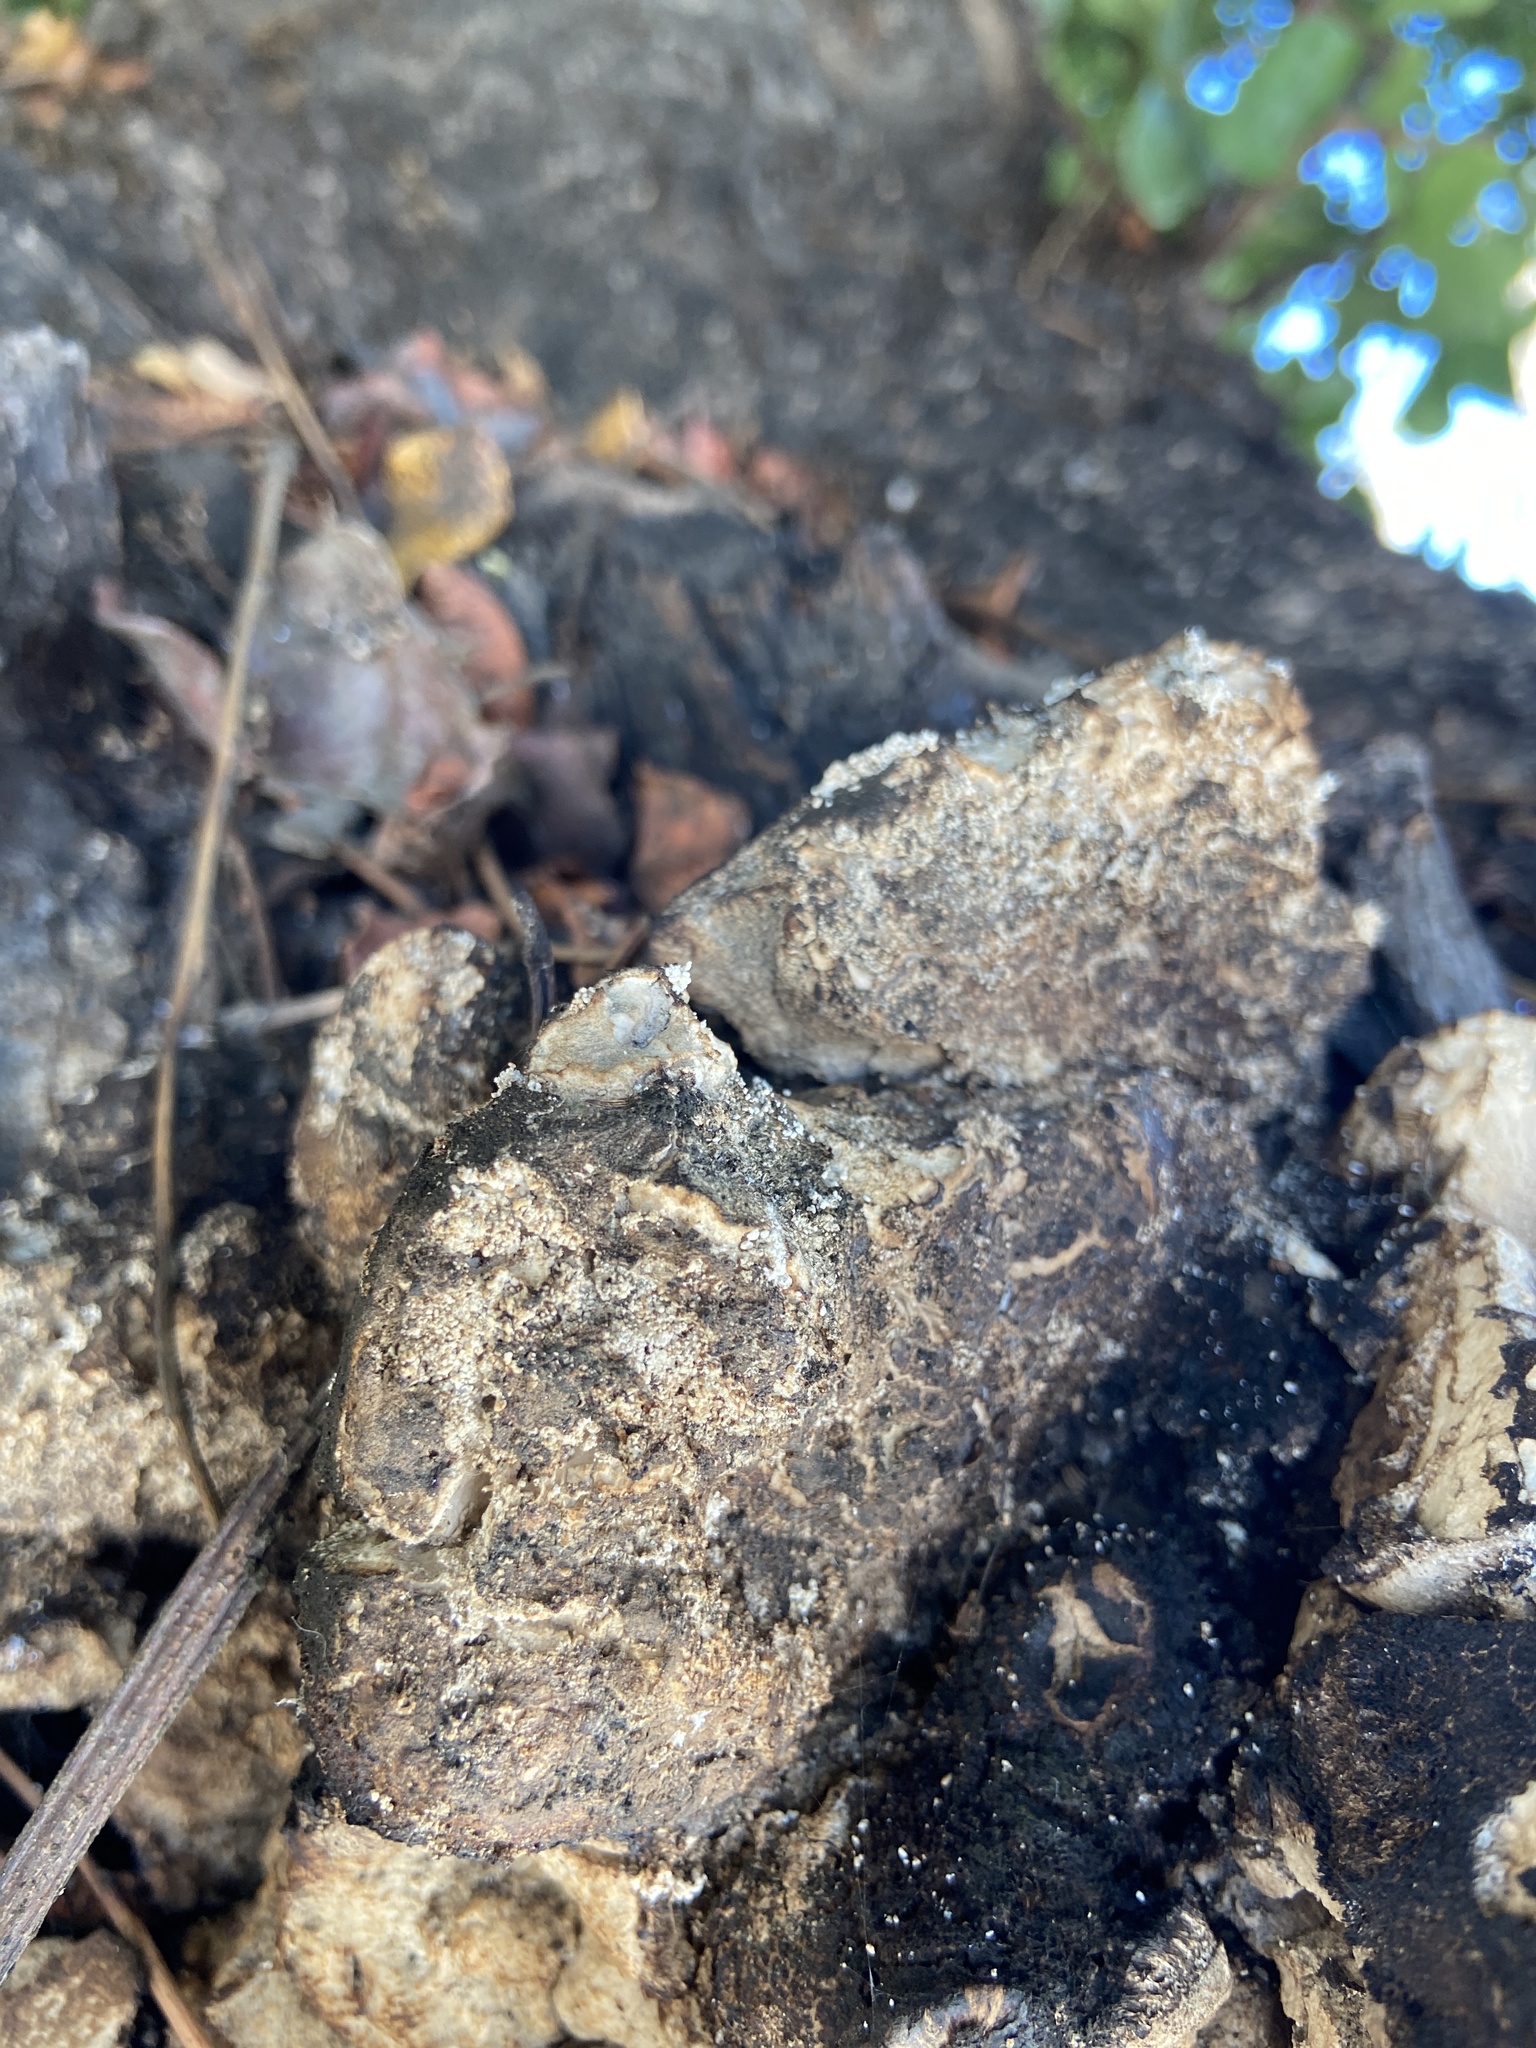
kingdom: Fungi
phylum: Basidiomycota
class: Agaricomycetes
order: Polyporales
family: Laetiporaceae
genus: Laetiporus
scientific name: Laetiporus gilbertsonii
